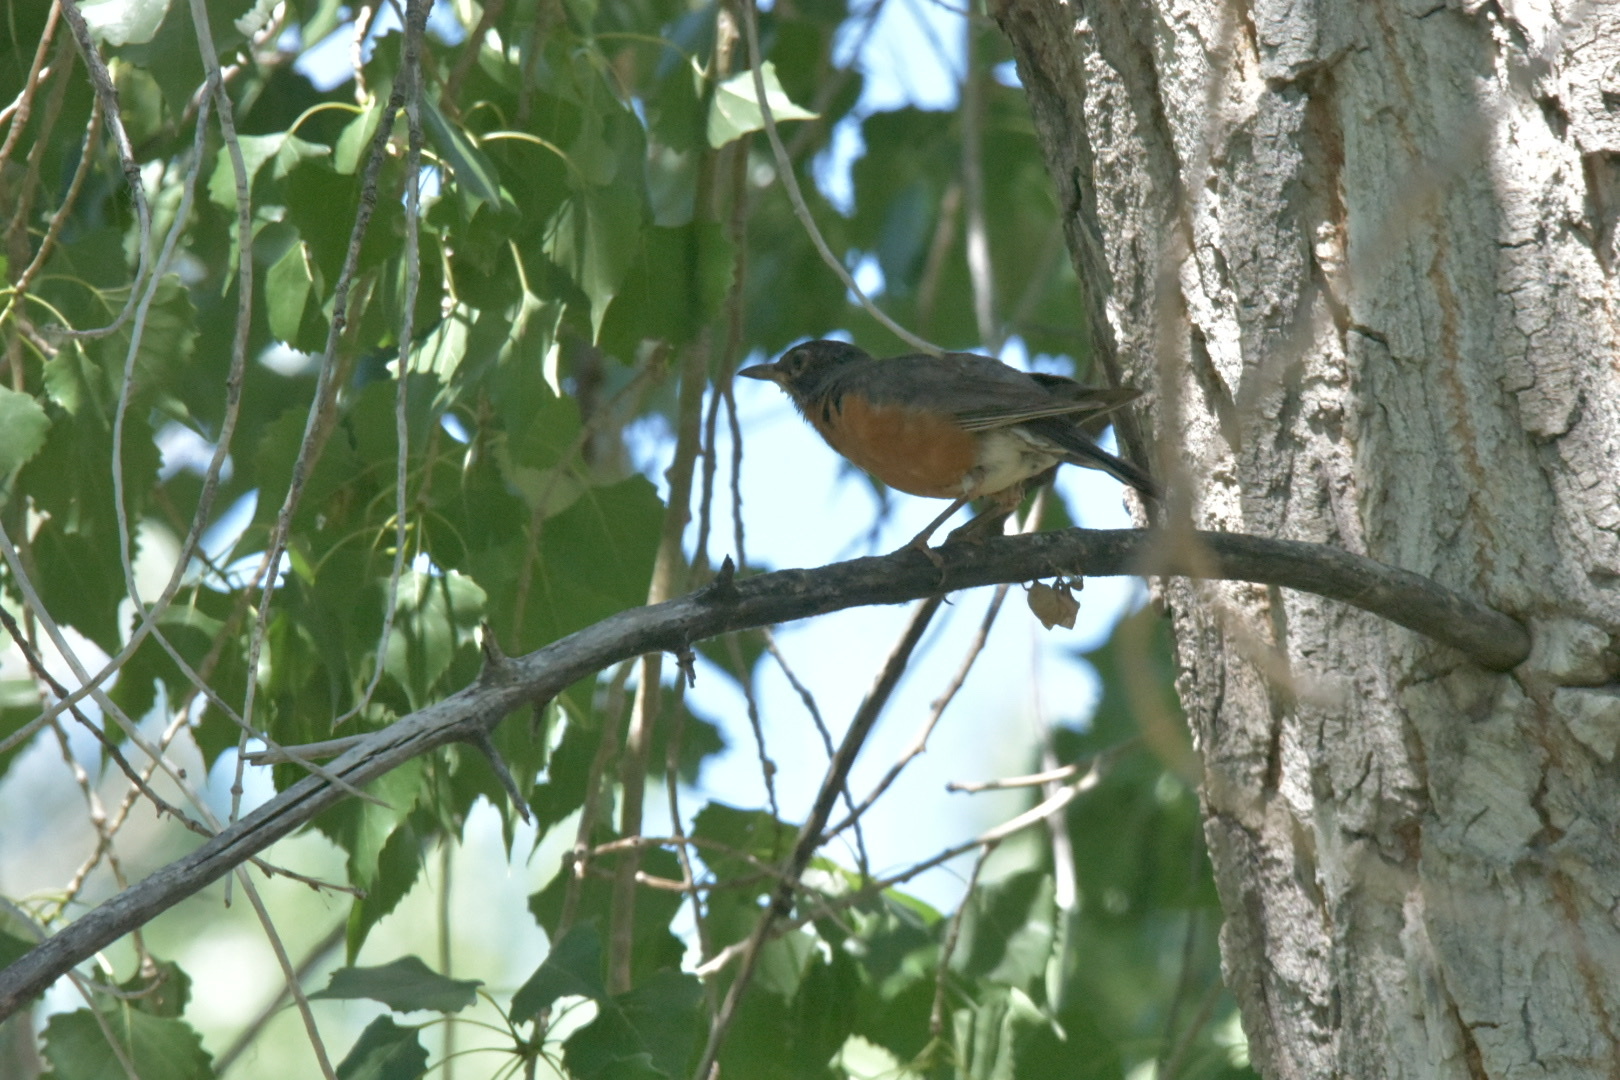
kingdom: Animalia
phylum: Chordata
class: Aves
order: Passeriformes
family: Turdidae
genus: Turdus
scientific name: Turdus migratorius
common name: American robin
